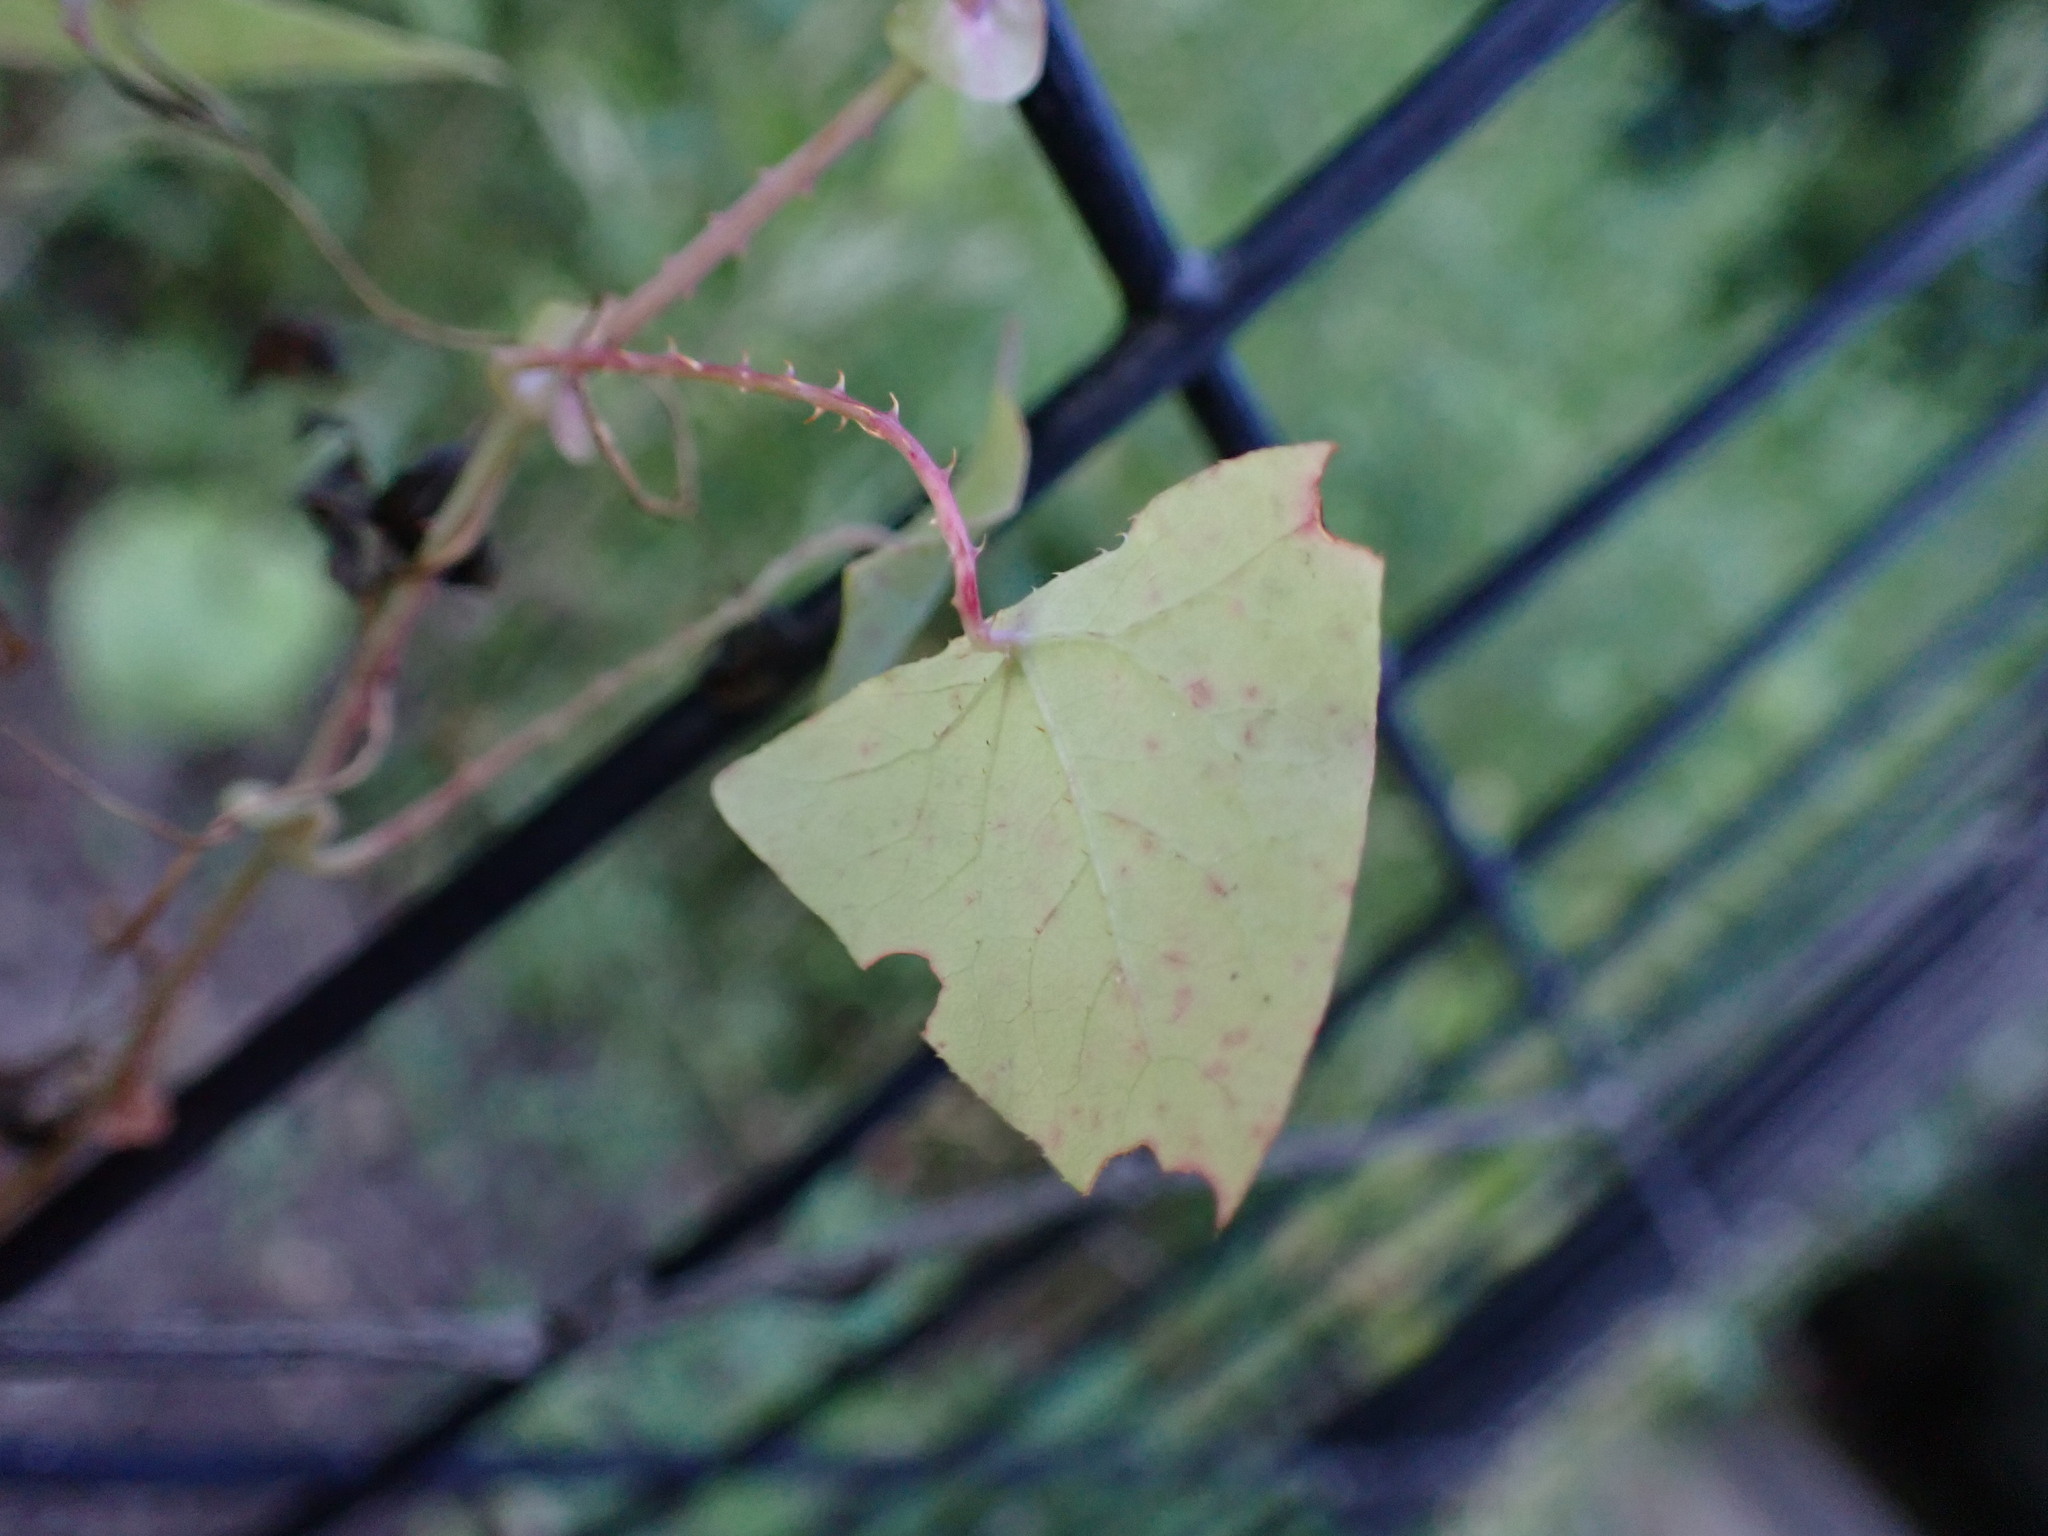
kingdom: Plantae
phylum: Tracheophyta
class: Magnoliopsida
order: Caryophyllales
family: Polygonaceae
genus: Persicaria
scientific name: Persicaria perfoliata
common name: Asiatic tearthumb
